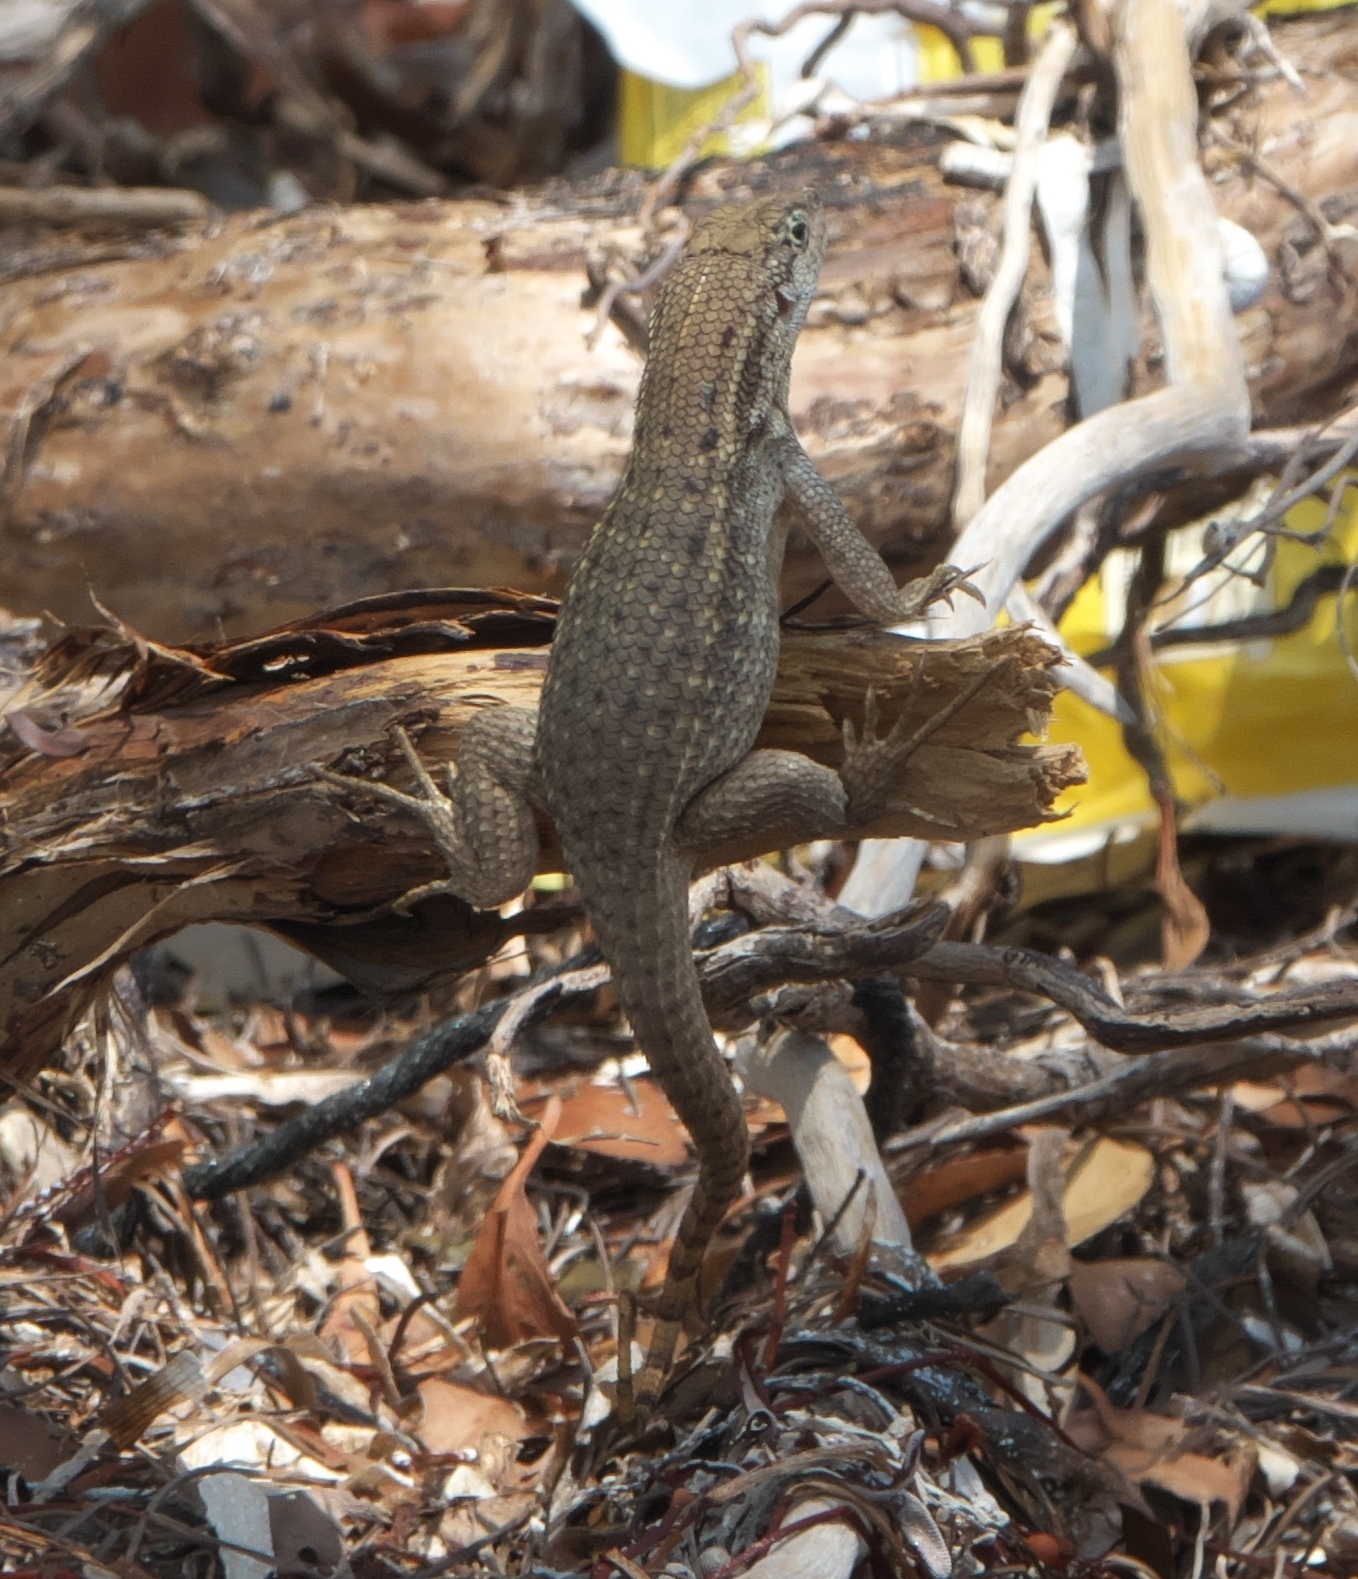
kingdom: Animalia
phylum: Chordata
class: Squamata
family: Leiocephalidae
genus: Leiocephalus
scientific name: Leiocephalus carinatus
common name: Northern curly-tailed lizard
